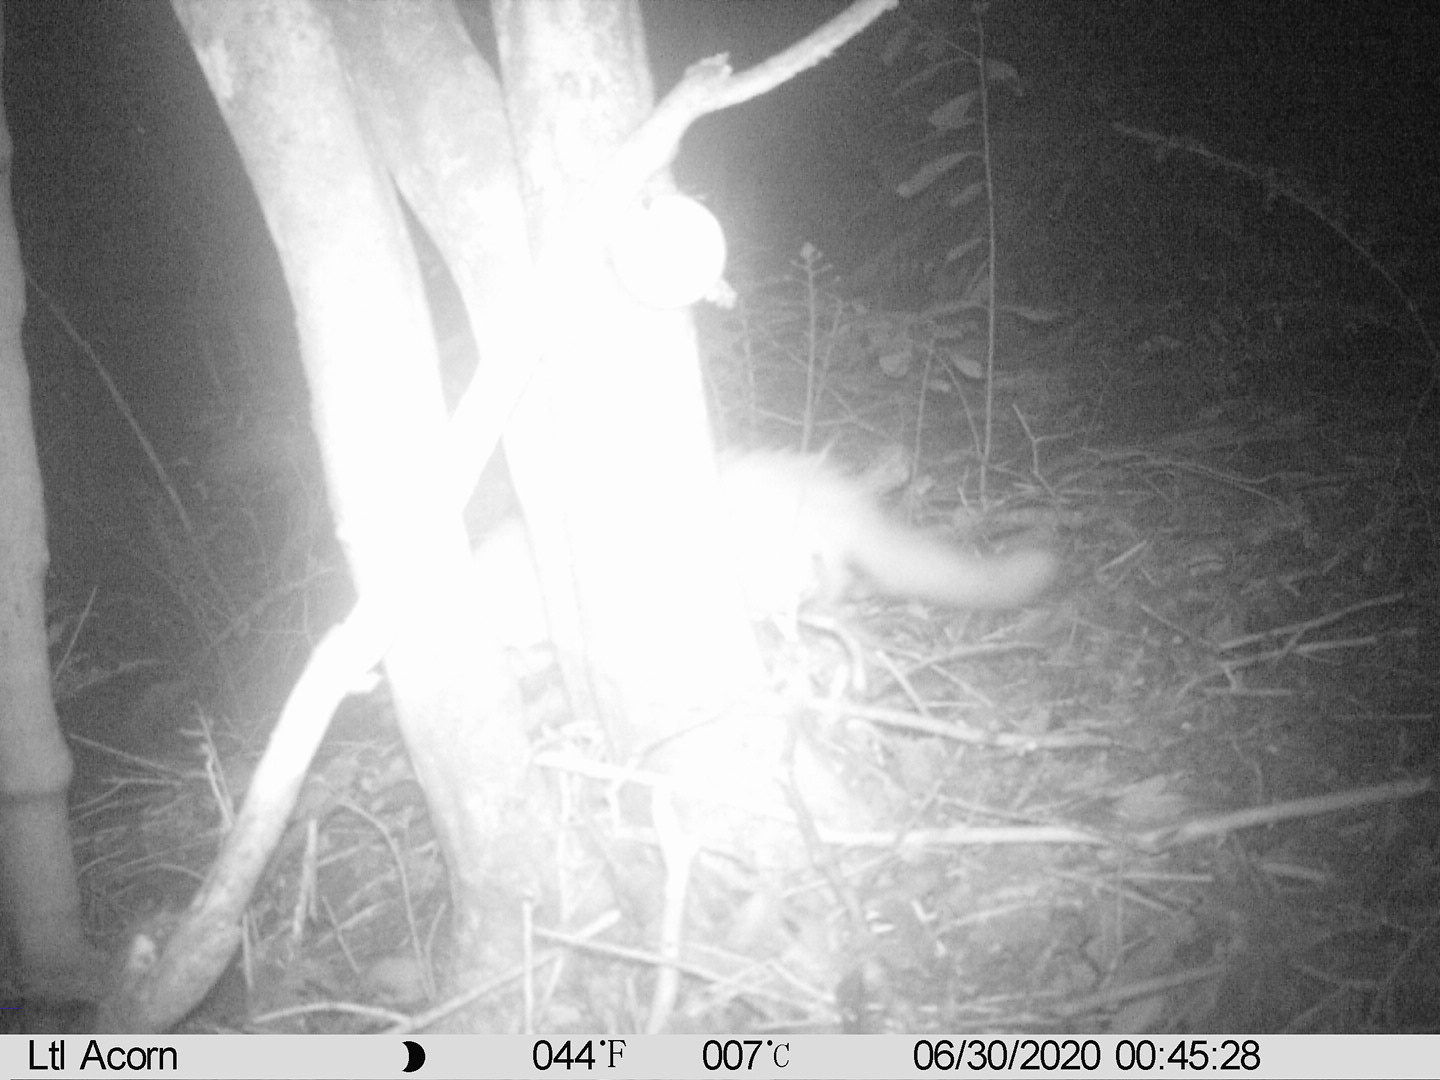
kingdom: Animalia
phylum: Chordata
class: Mammalia
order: Carnivora
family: Felidae
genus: Felis
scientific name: Felis catus
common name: Domestic cat
